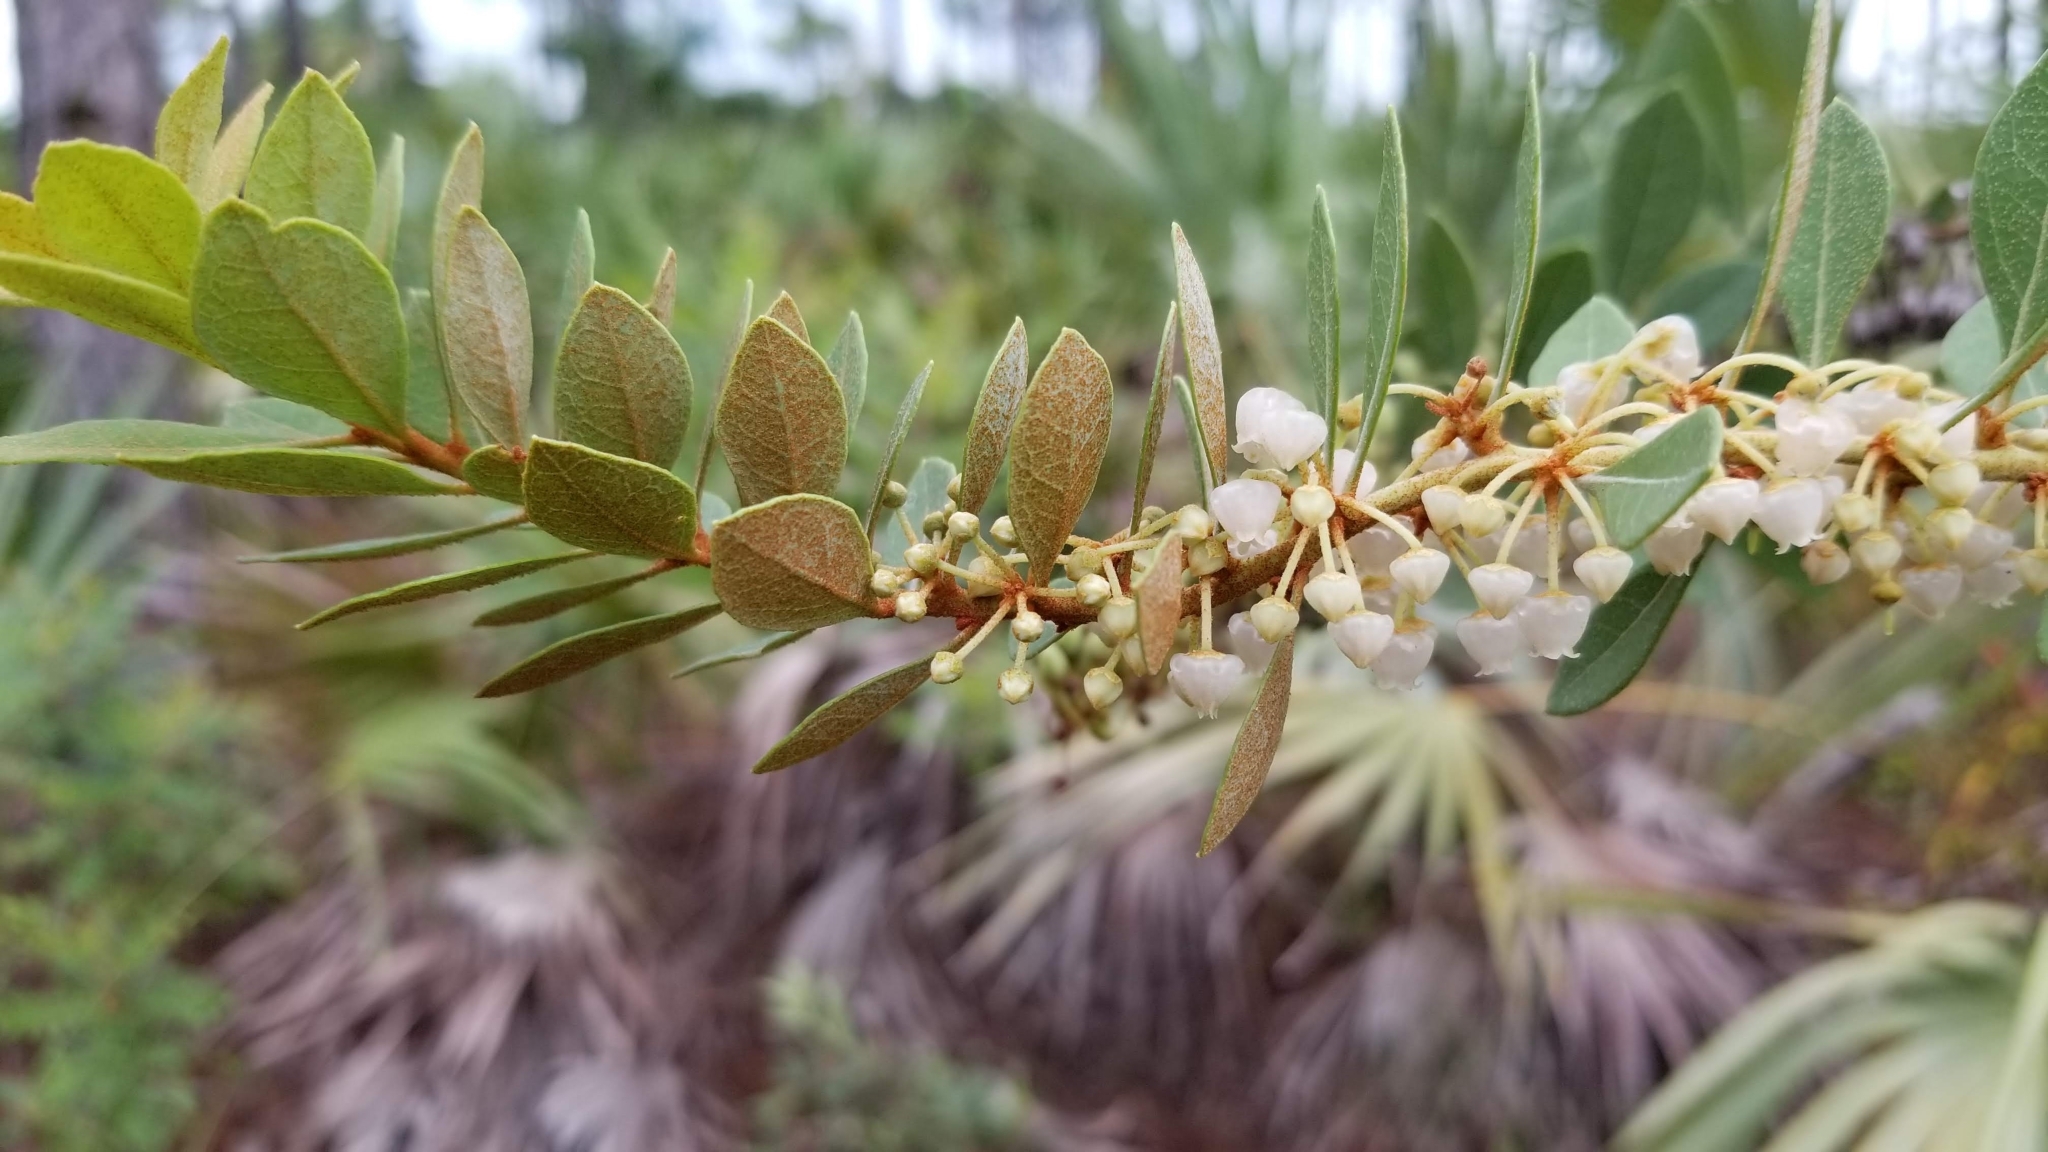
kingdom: Plantae
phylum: Tracheophyta
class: Magnoliopsida
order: Ericales
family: Ericaceae
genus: Lyonia
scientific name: Lyonia fruticosa
